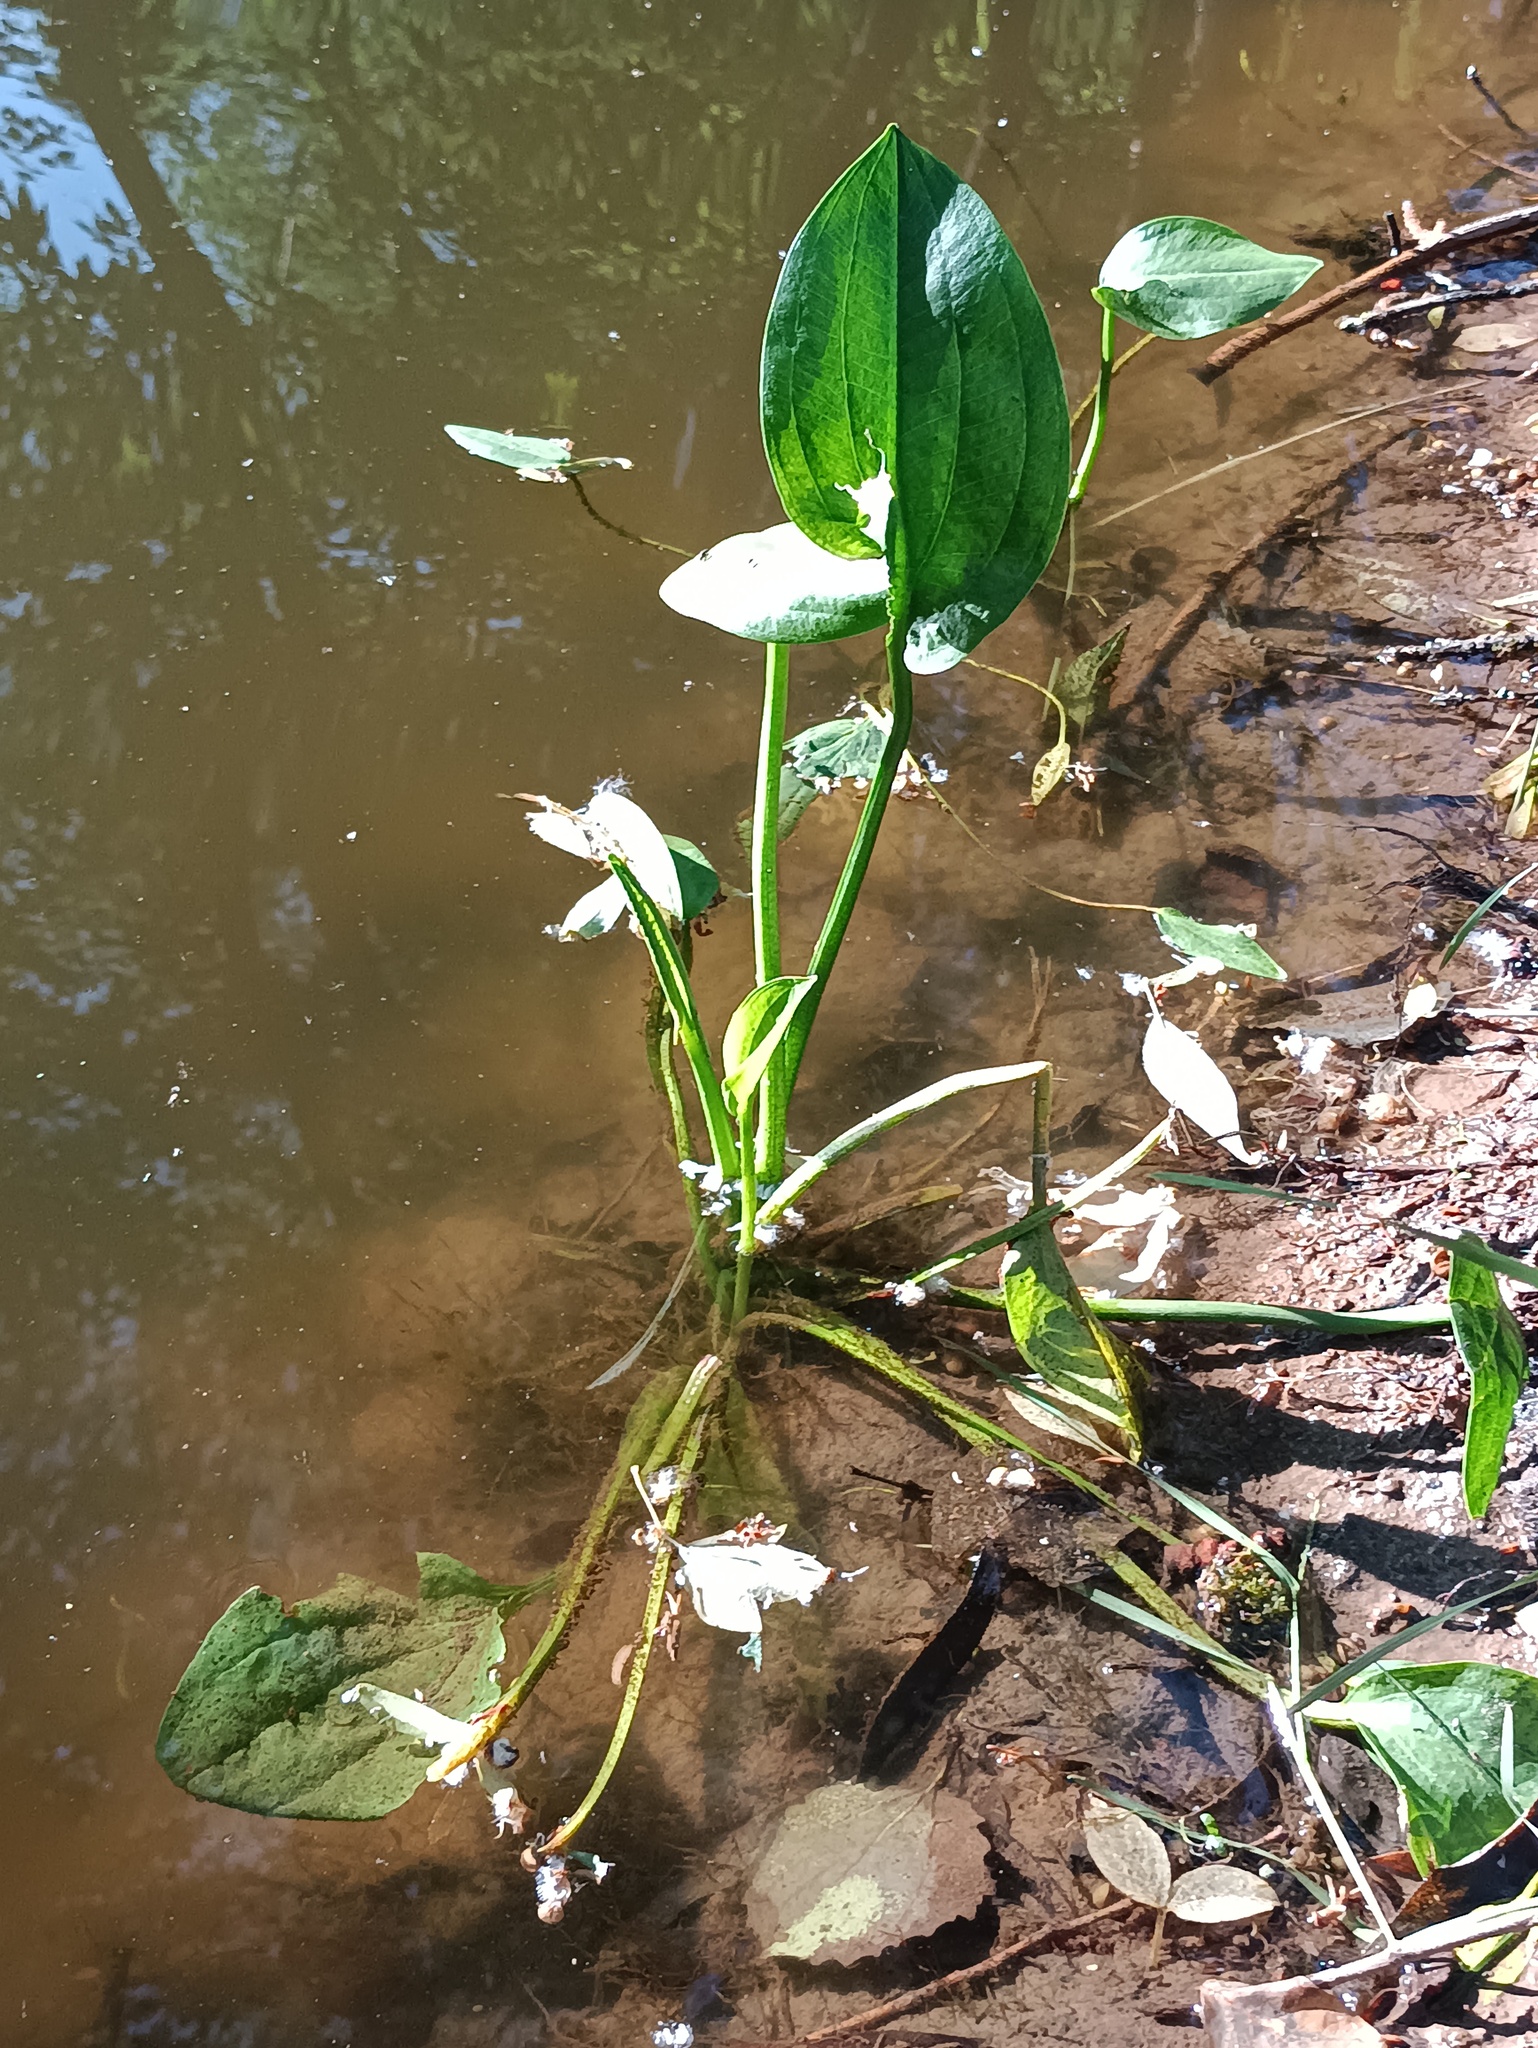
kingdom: Plantae
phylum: Tracheophyta
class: Liliopsida
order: Alismatales
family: Alismataceae
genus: Alisma
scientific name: Alisma plantago-aquatica
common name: Water-plantain
